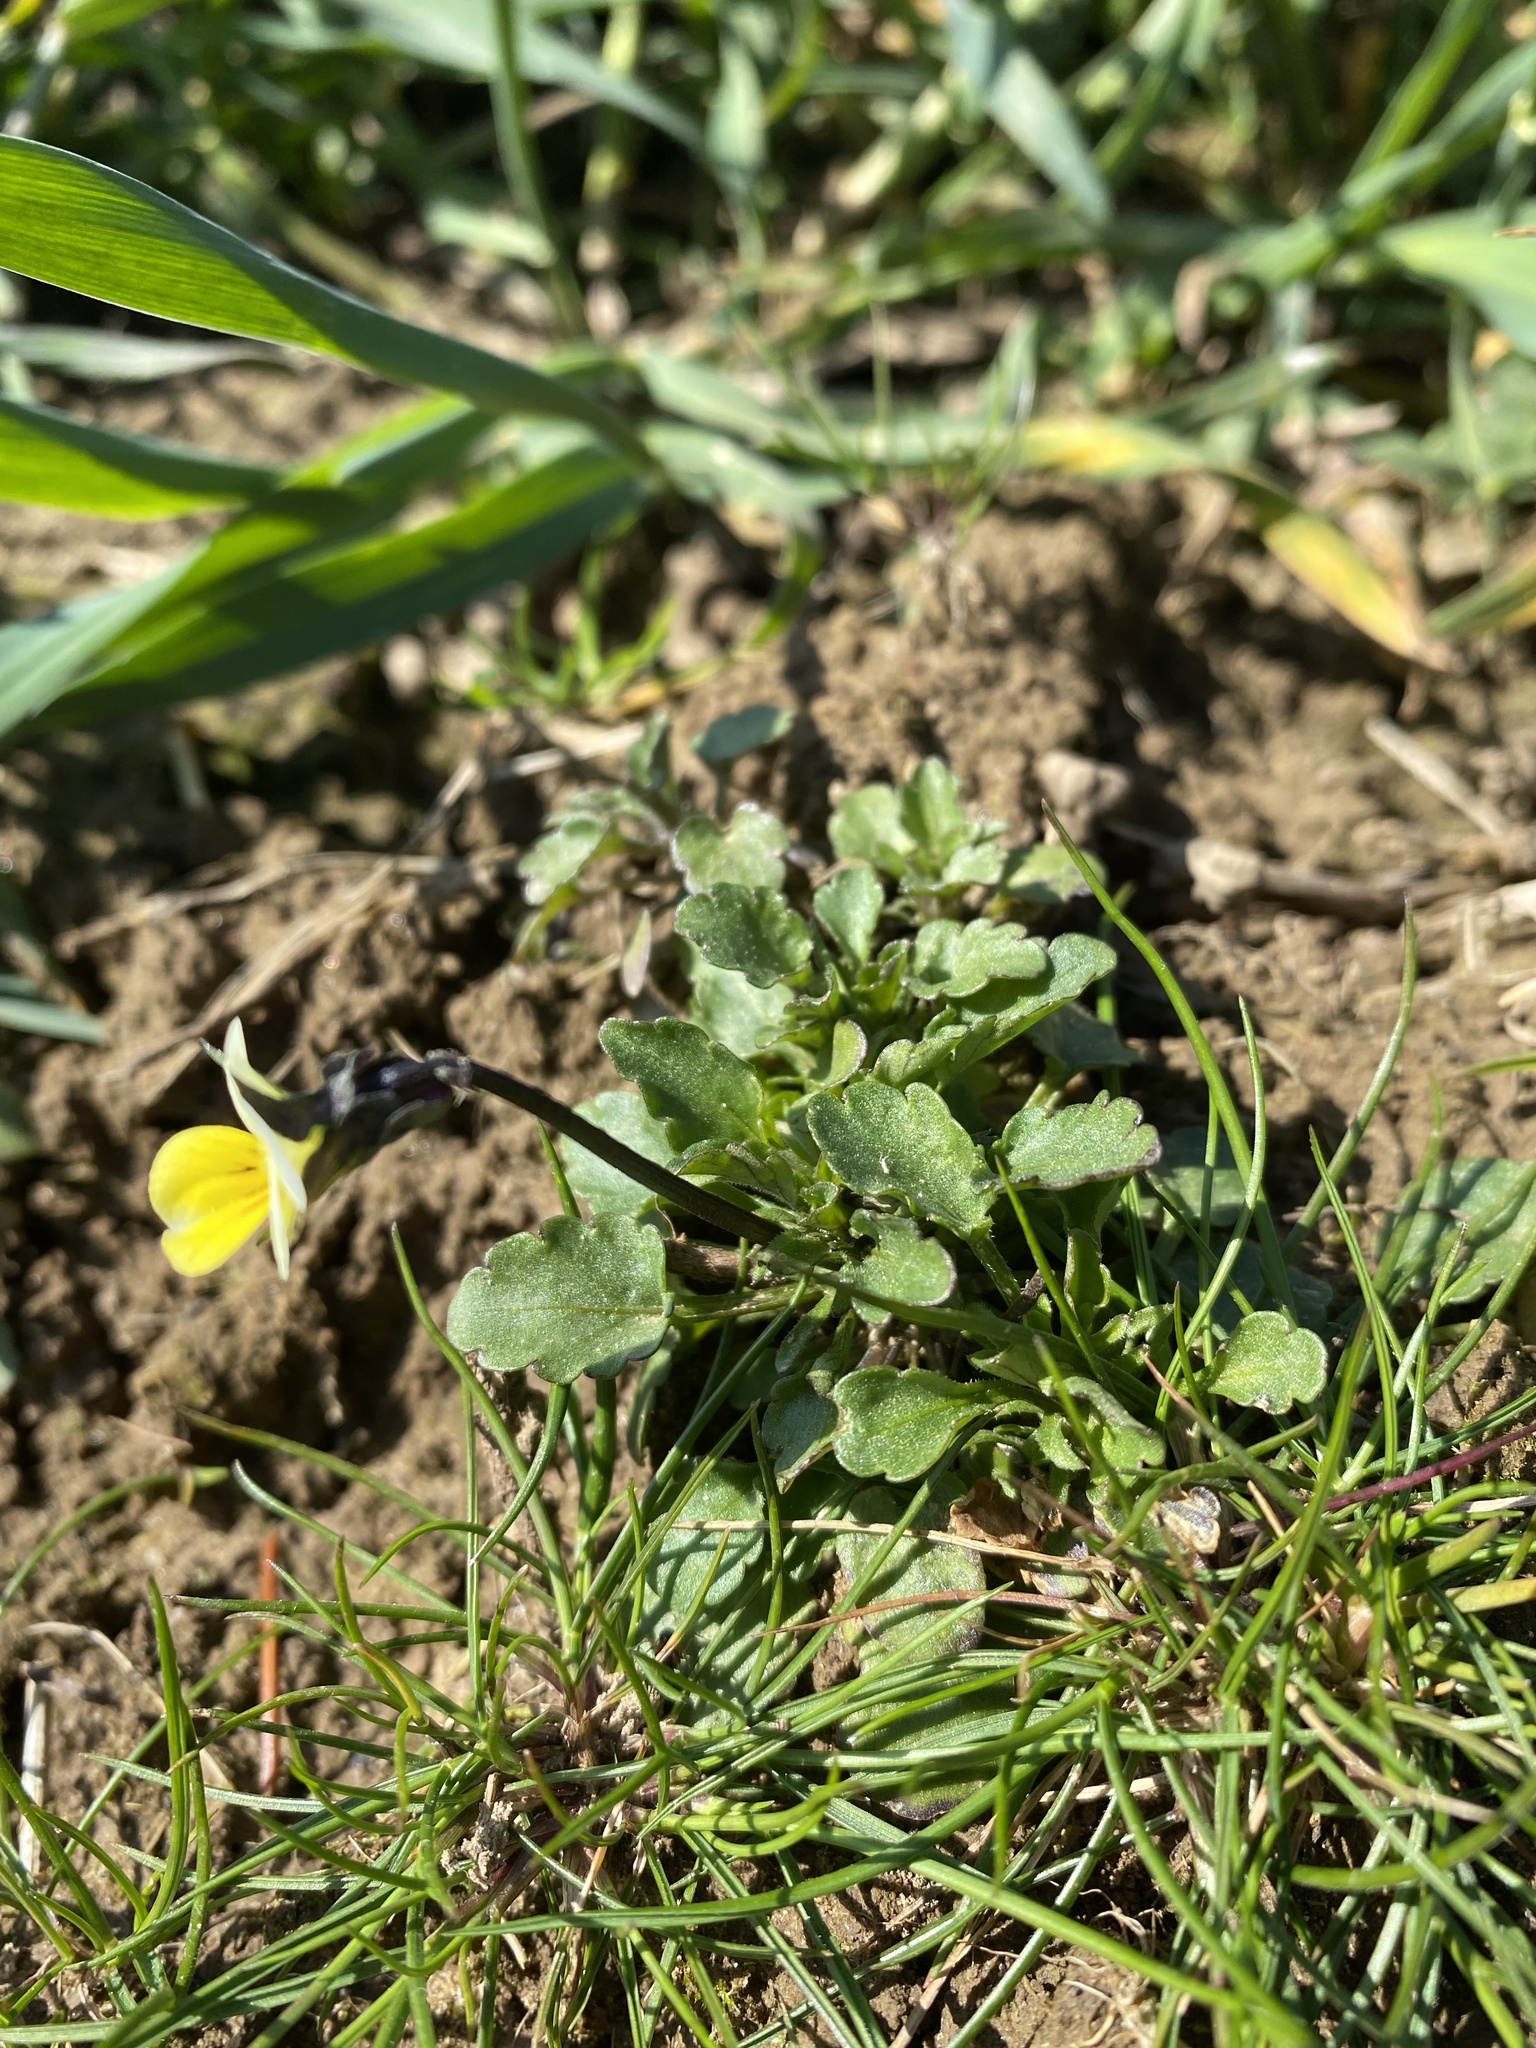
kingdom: Plantae
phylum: Tracheophyta
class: Magnoliopsida
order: Malpighiales
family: Violaceae
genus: Viola
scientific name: Viola arvensis
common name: Field pansy
